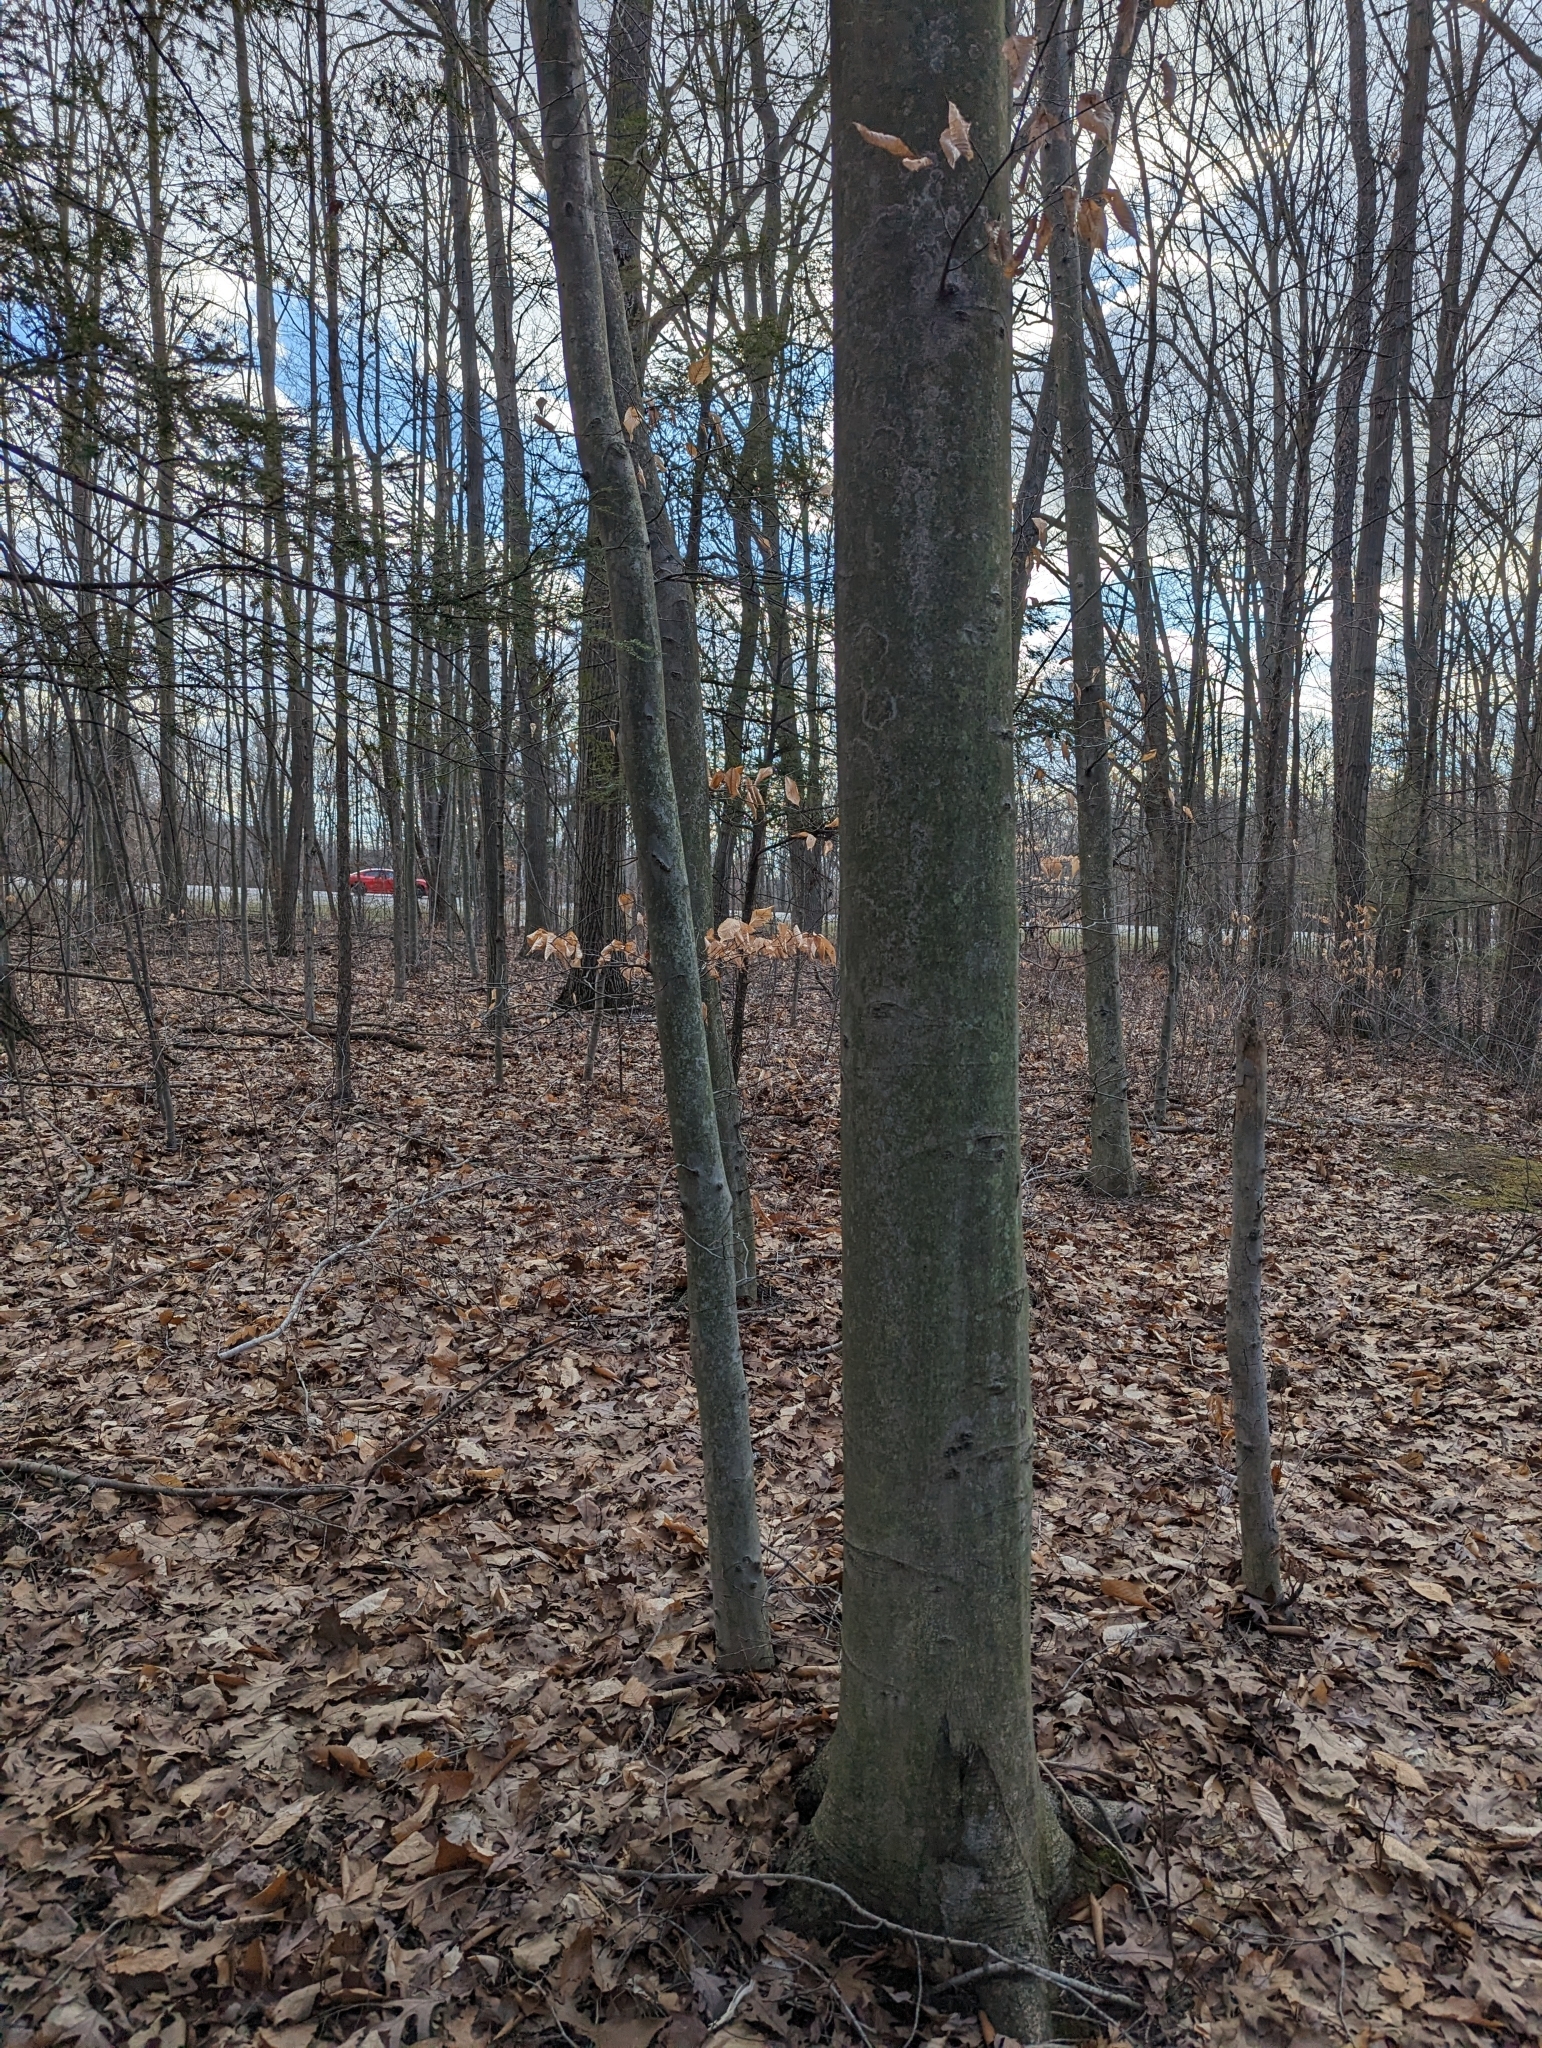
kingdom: Plantae
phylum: Tracheophyta
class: Magnoliopsida
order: Fagales
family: Fagaceae
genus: Fagus
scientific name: Fagus grandifolia
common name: American beech
